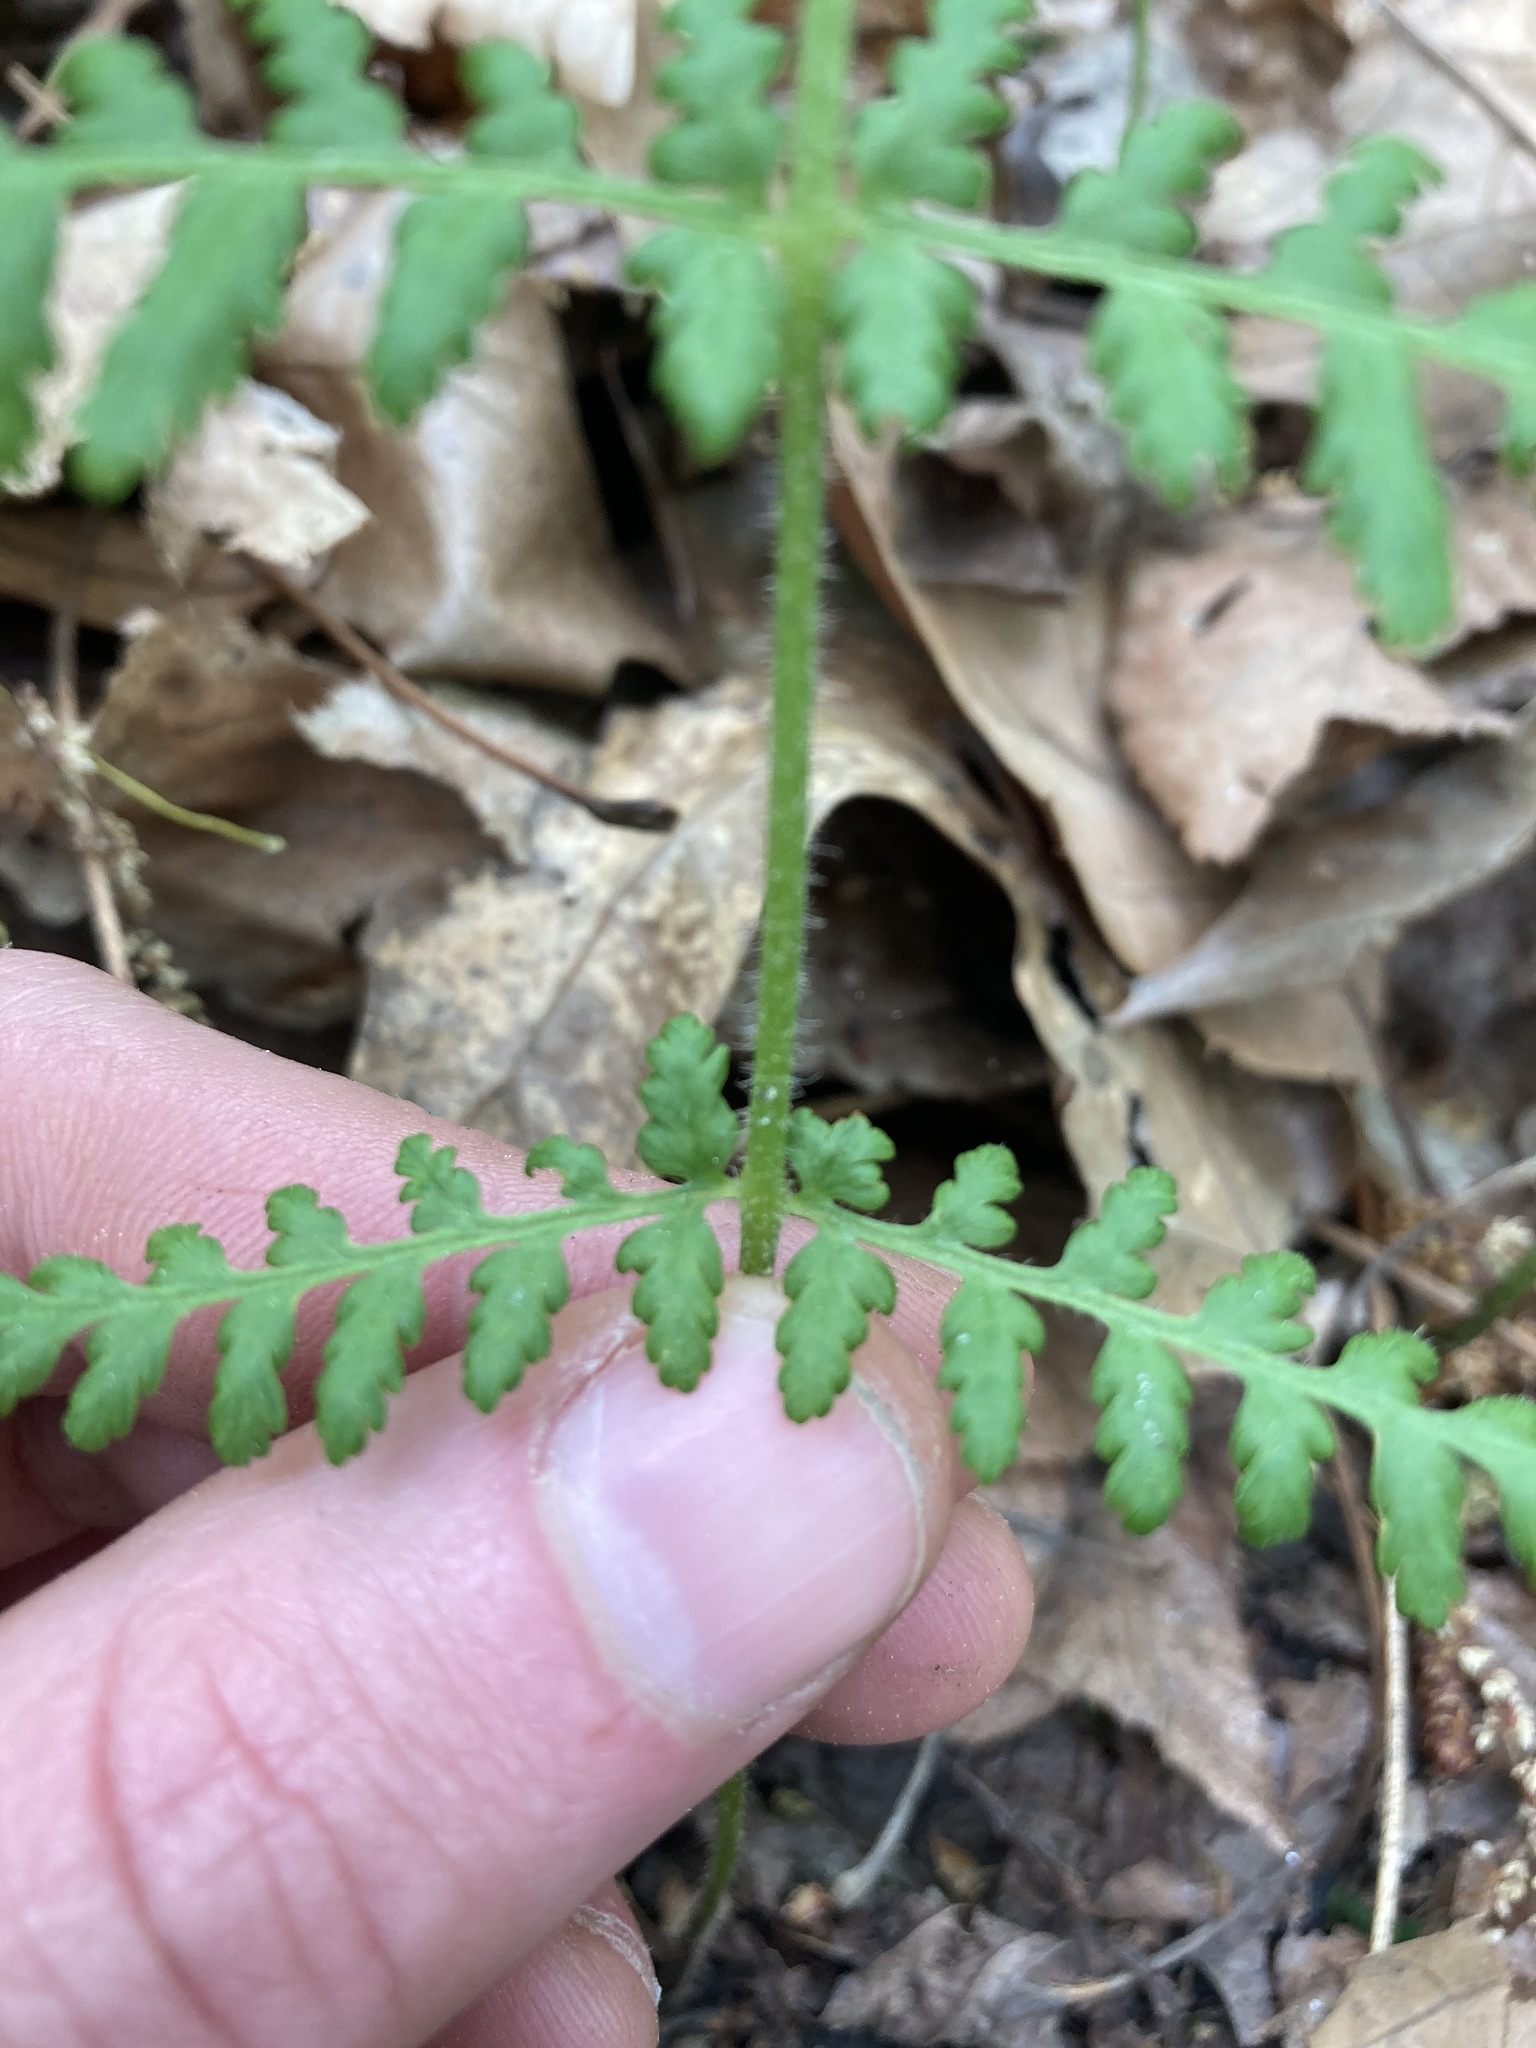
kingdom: Plantae
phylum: Tracheophyta
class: Polypodiopsida
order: Polypodiales
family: Dennstaedtiaceae
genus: Sitobolium
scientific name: Sitobolium punctilobum
